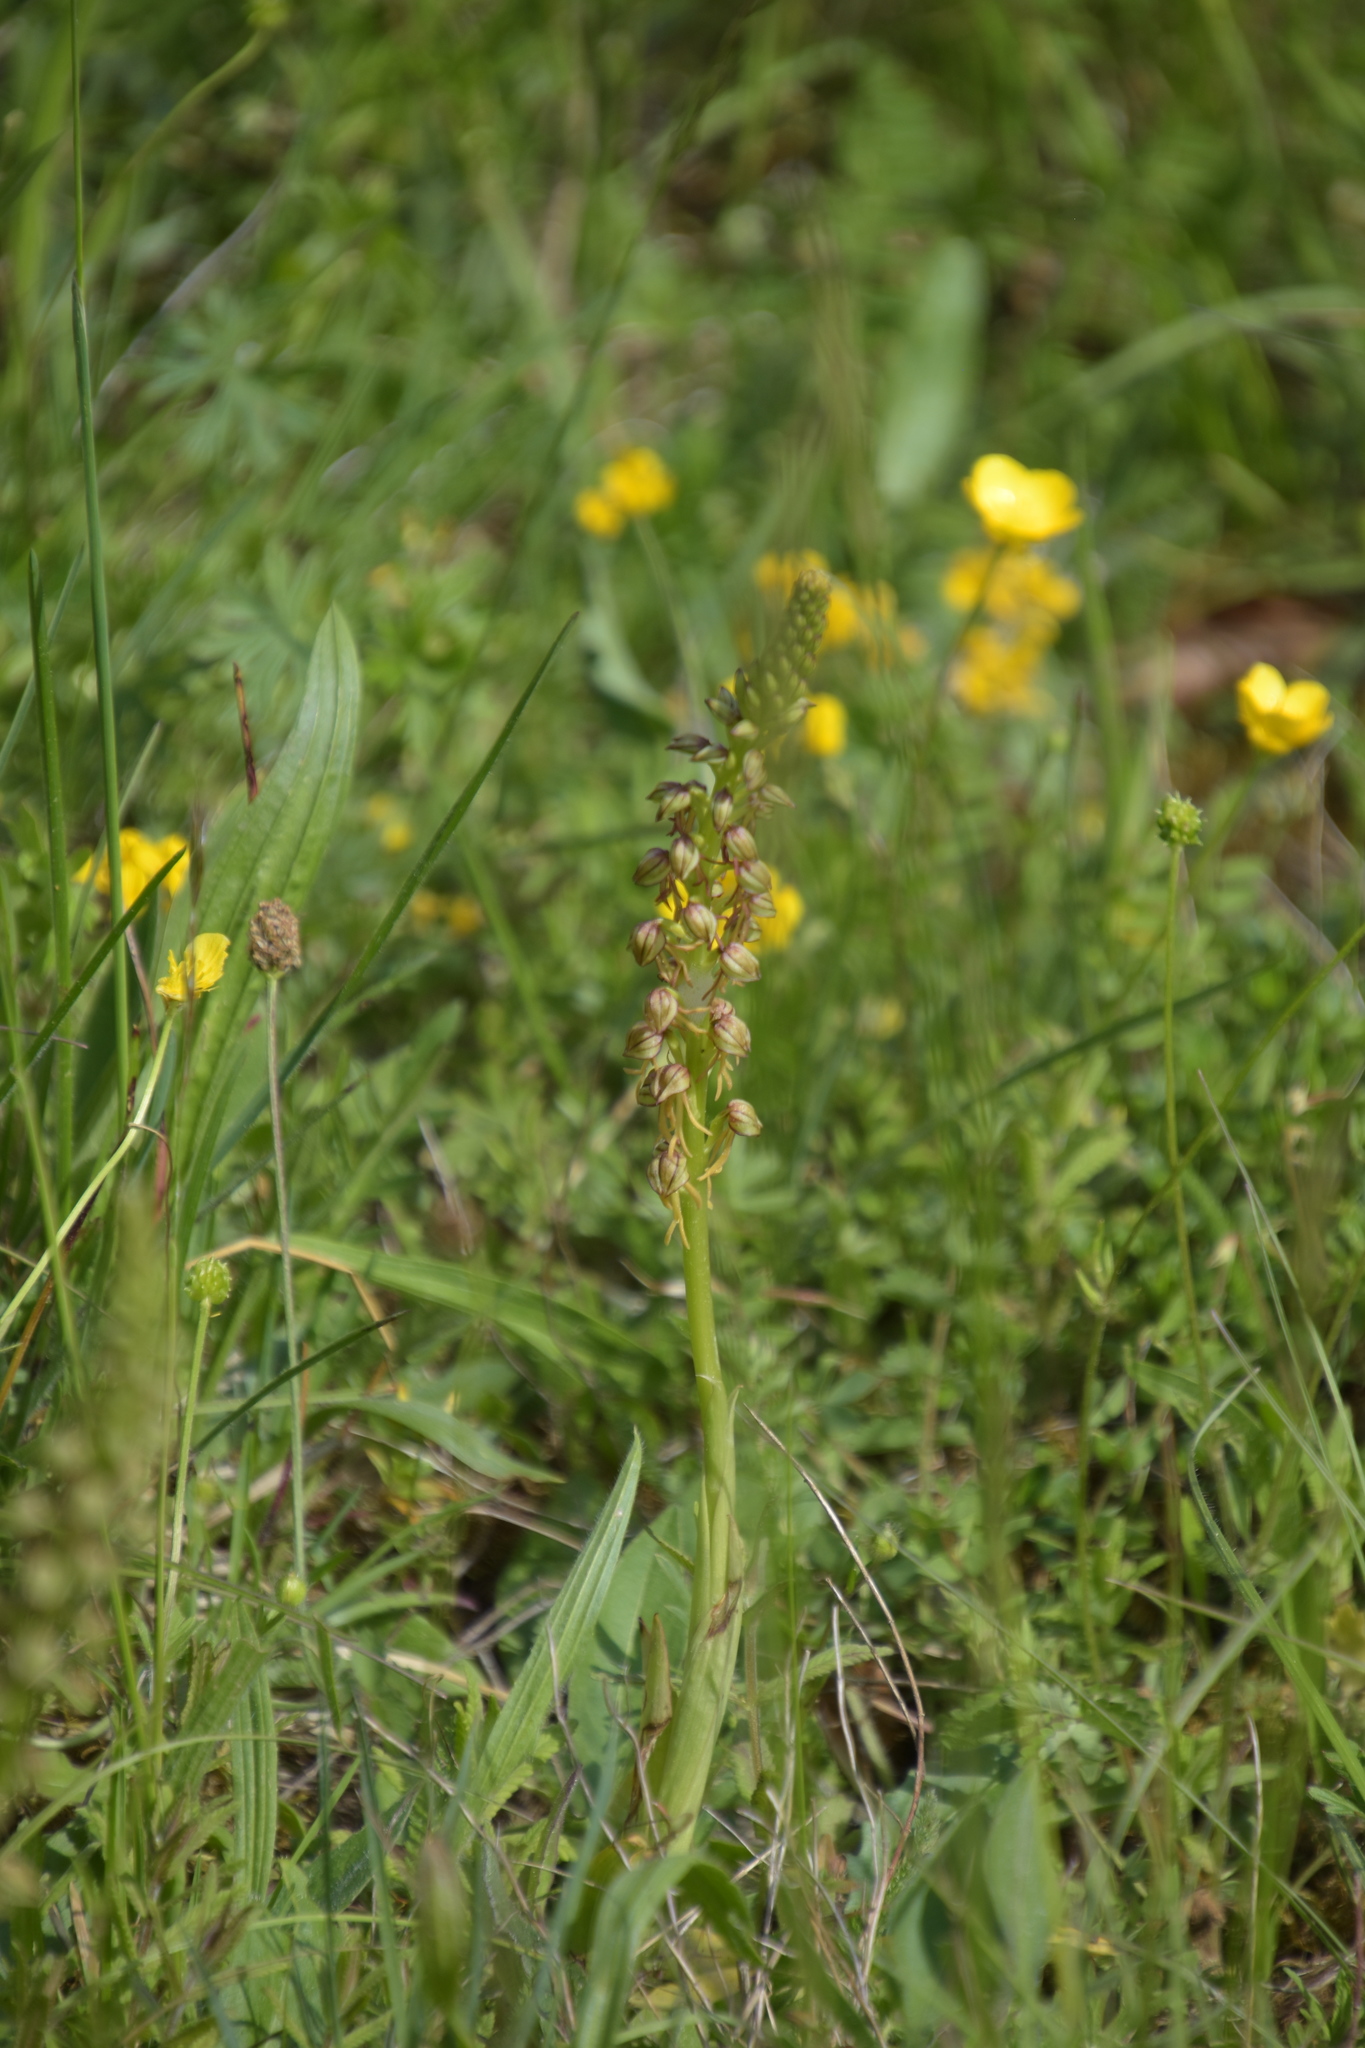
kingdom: Plantae
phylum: Tracheophyta
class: Liliopsida
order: Asparagales
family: Orchidaceae
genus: Orchis
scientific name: Orchis anthropophora
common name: Man orchid
